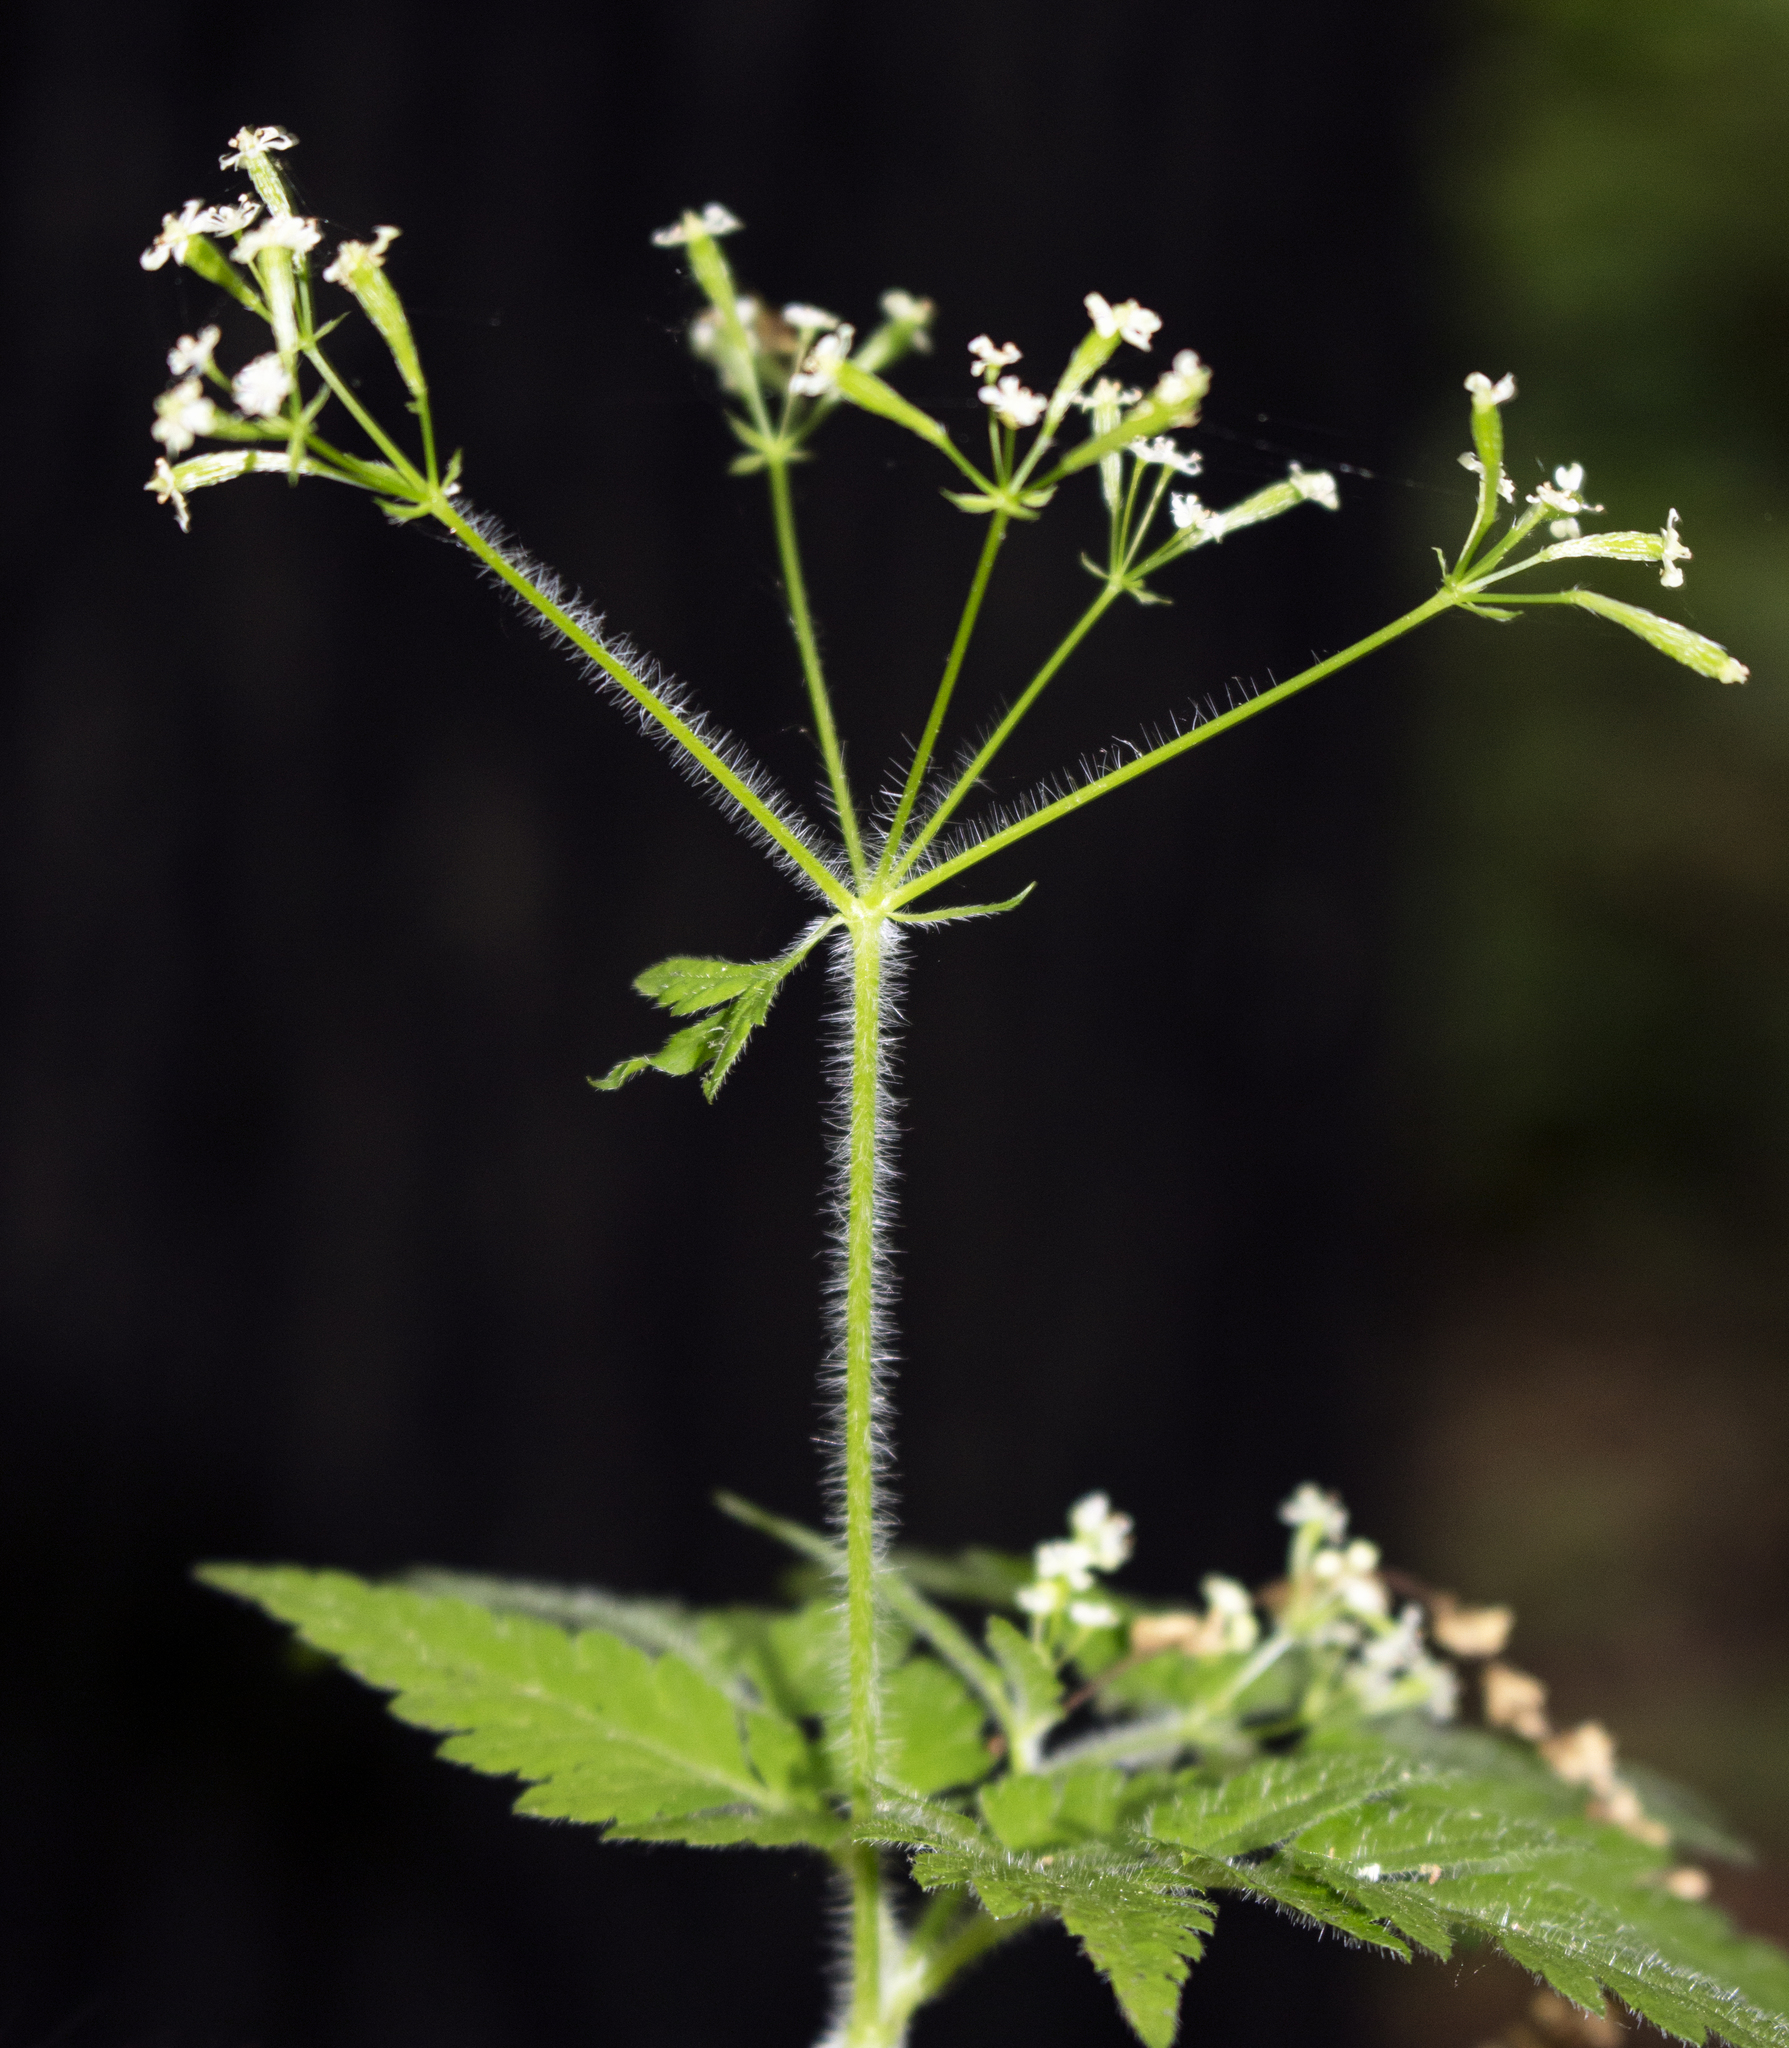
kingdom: Plantae
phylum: Tracheophyta
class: Magnoliopsida
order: Apiales
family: Apiaceae
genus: Osmorhiza
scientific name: Osmorhiza claytonii
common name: Hairy sweet cicely
